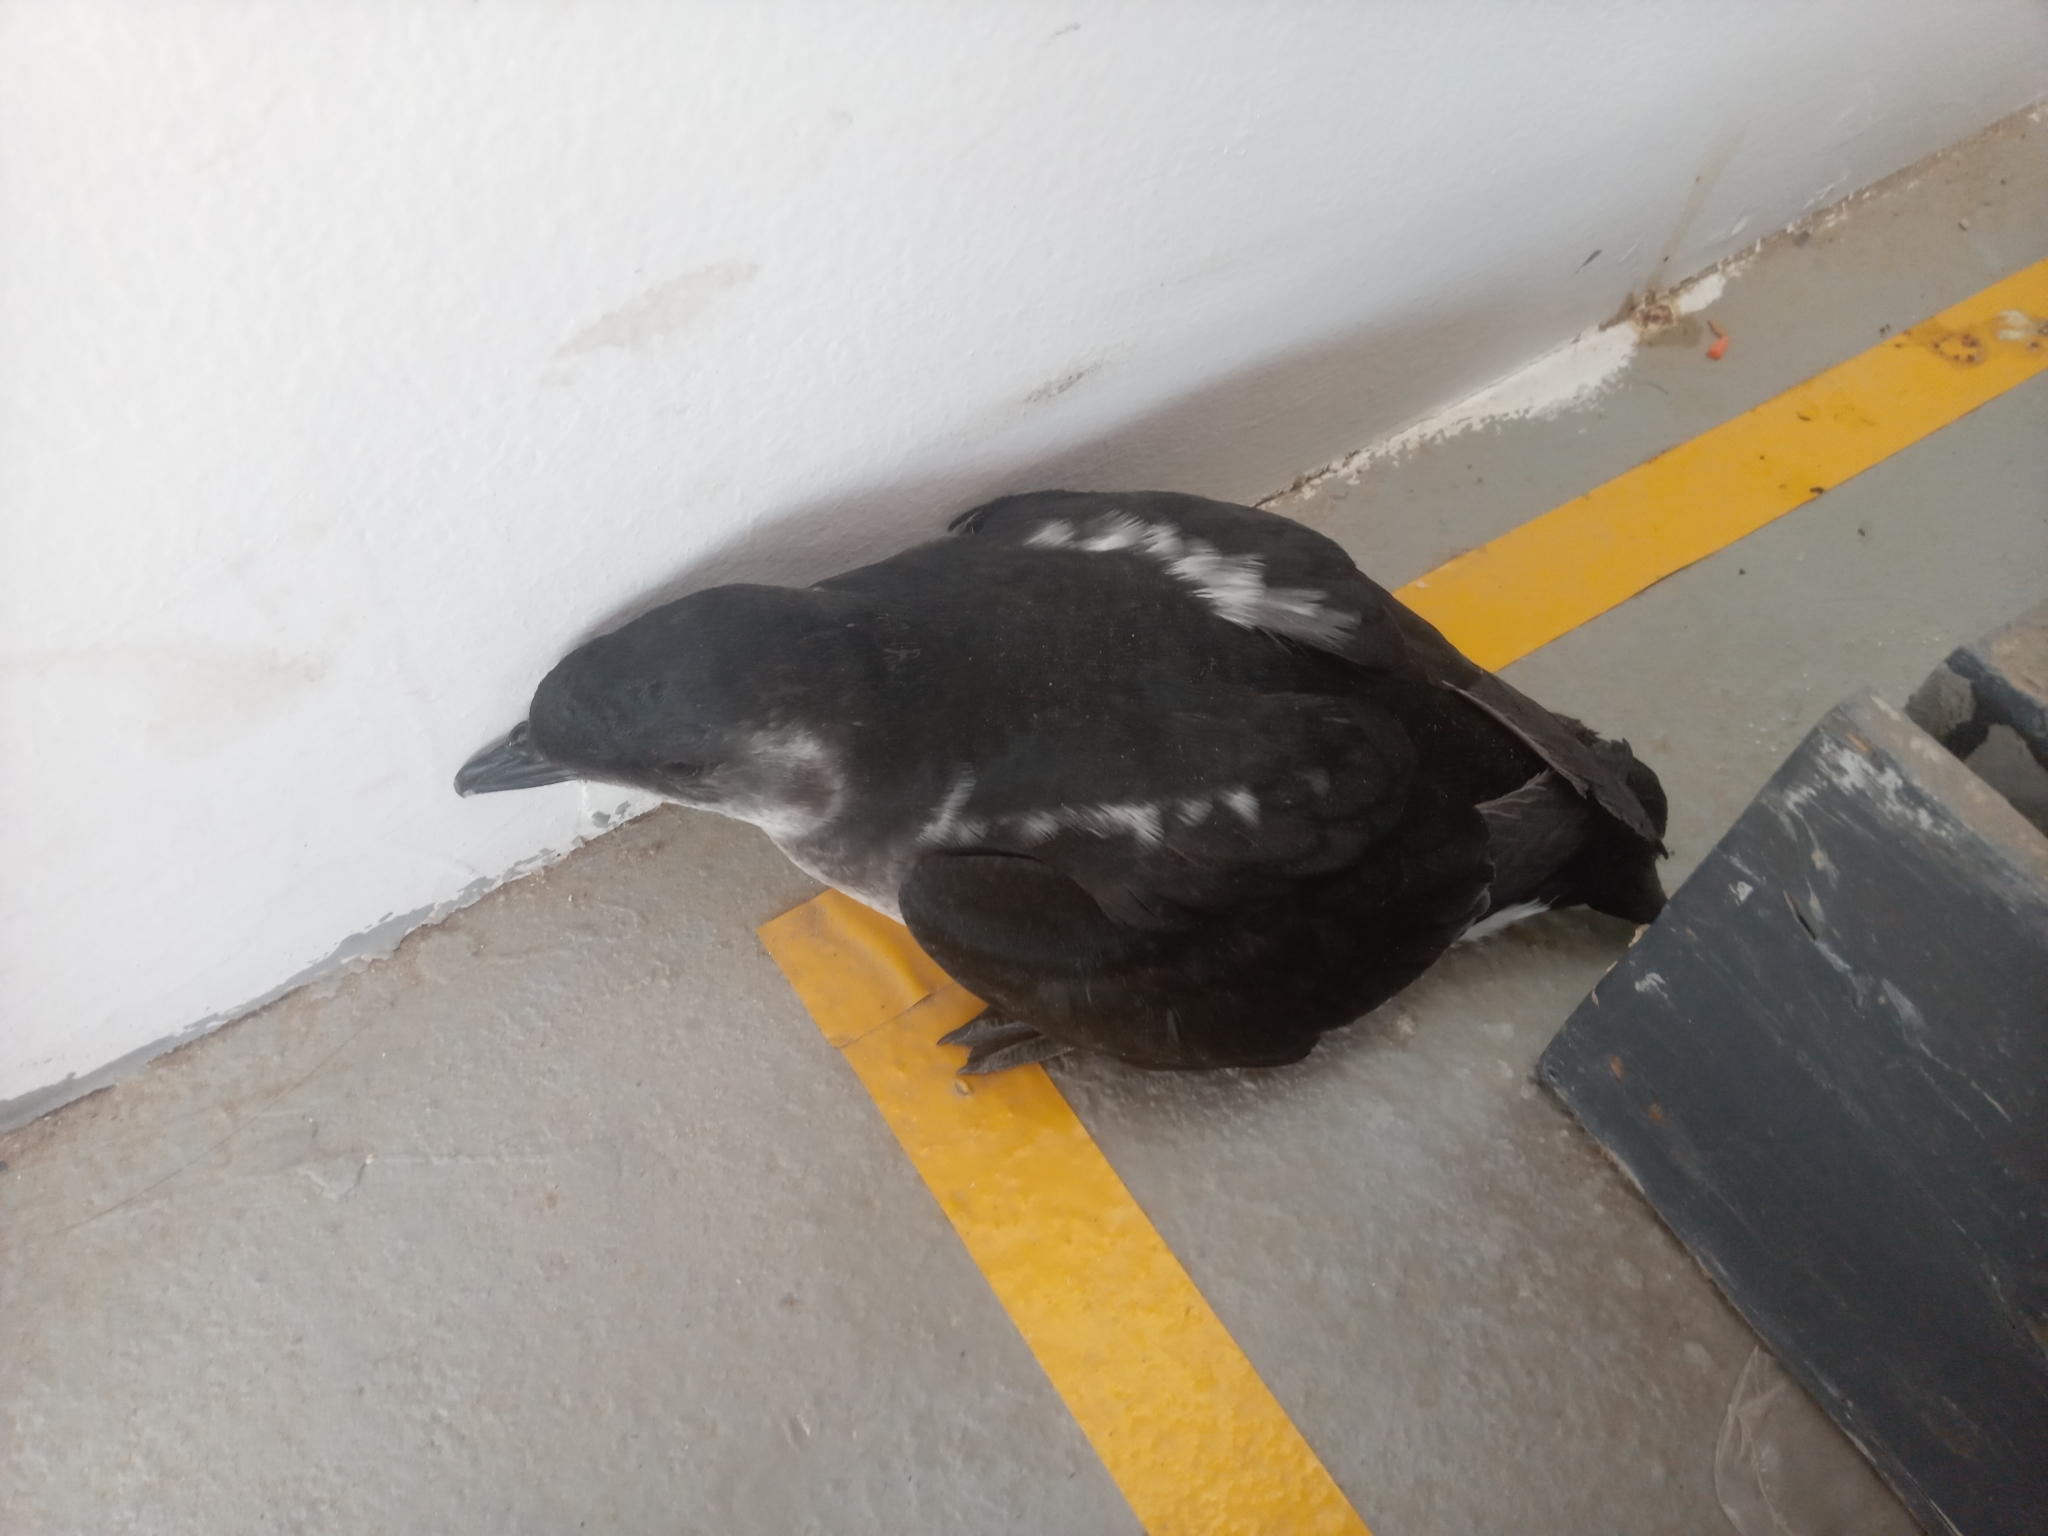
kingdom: Animalia
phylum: Chordata
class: Aves
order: Procellariiformes
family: Pelecanoididae
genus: Pelecanoides
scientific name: Pelecanoides garnotii
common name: Peruvian diving-petrel
